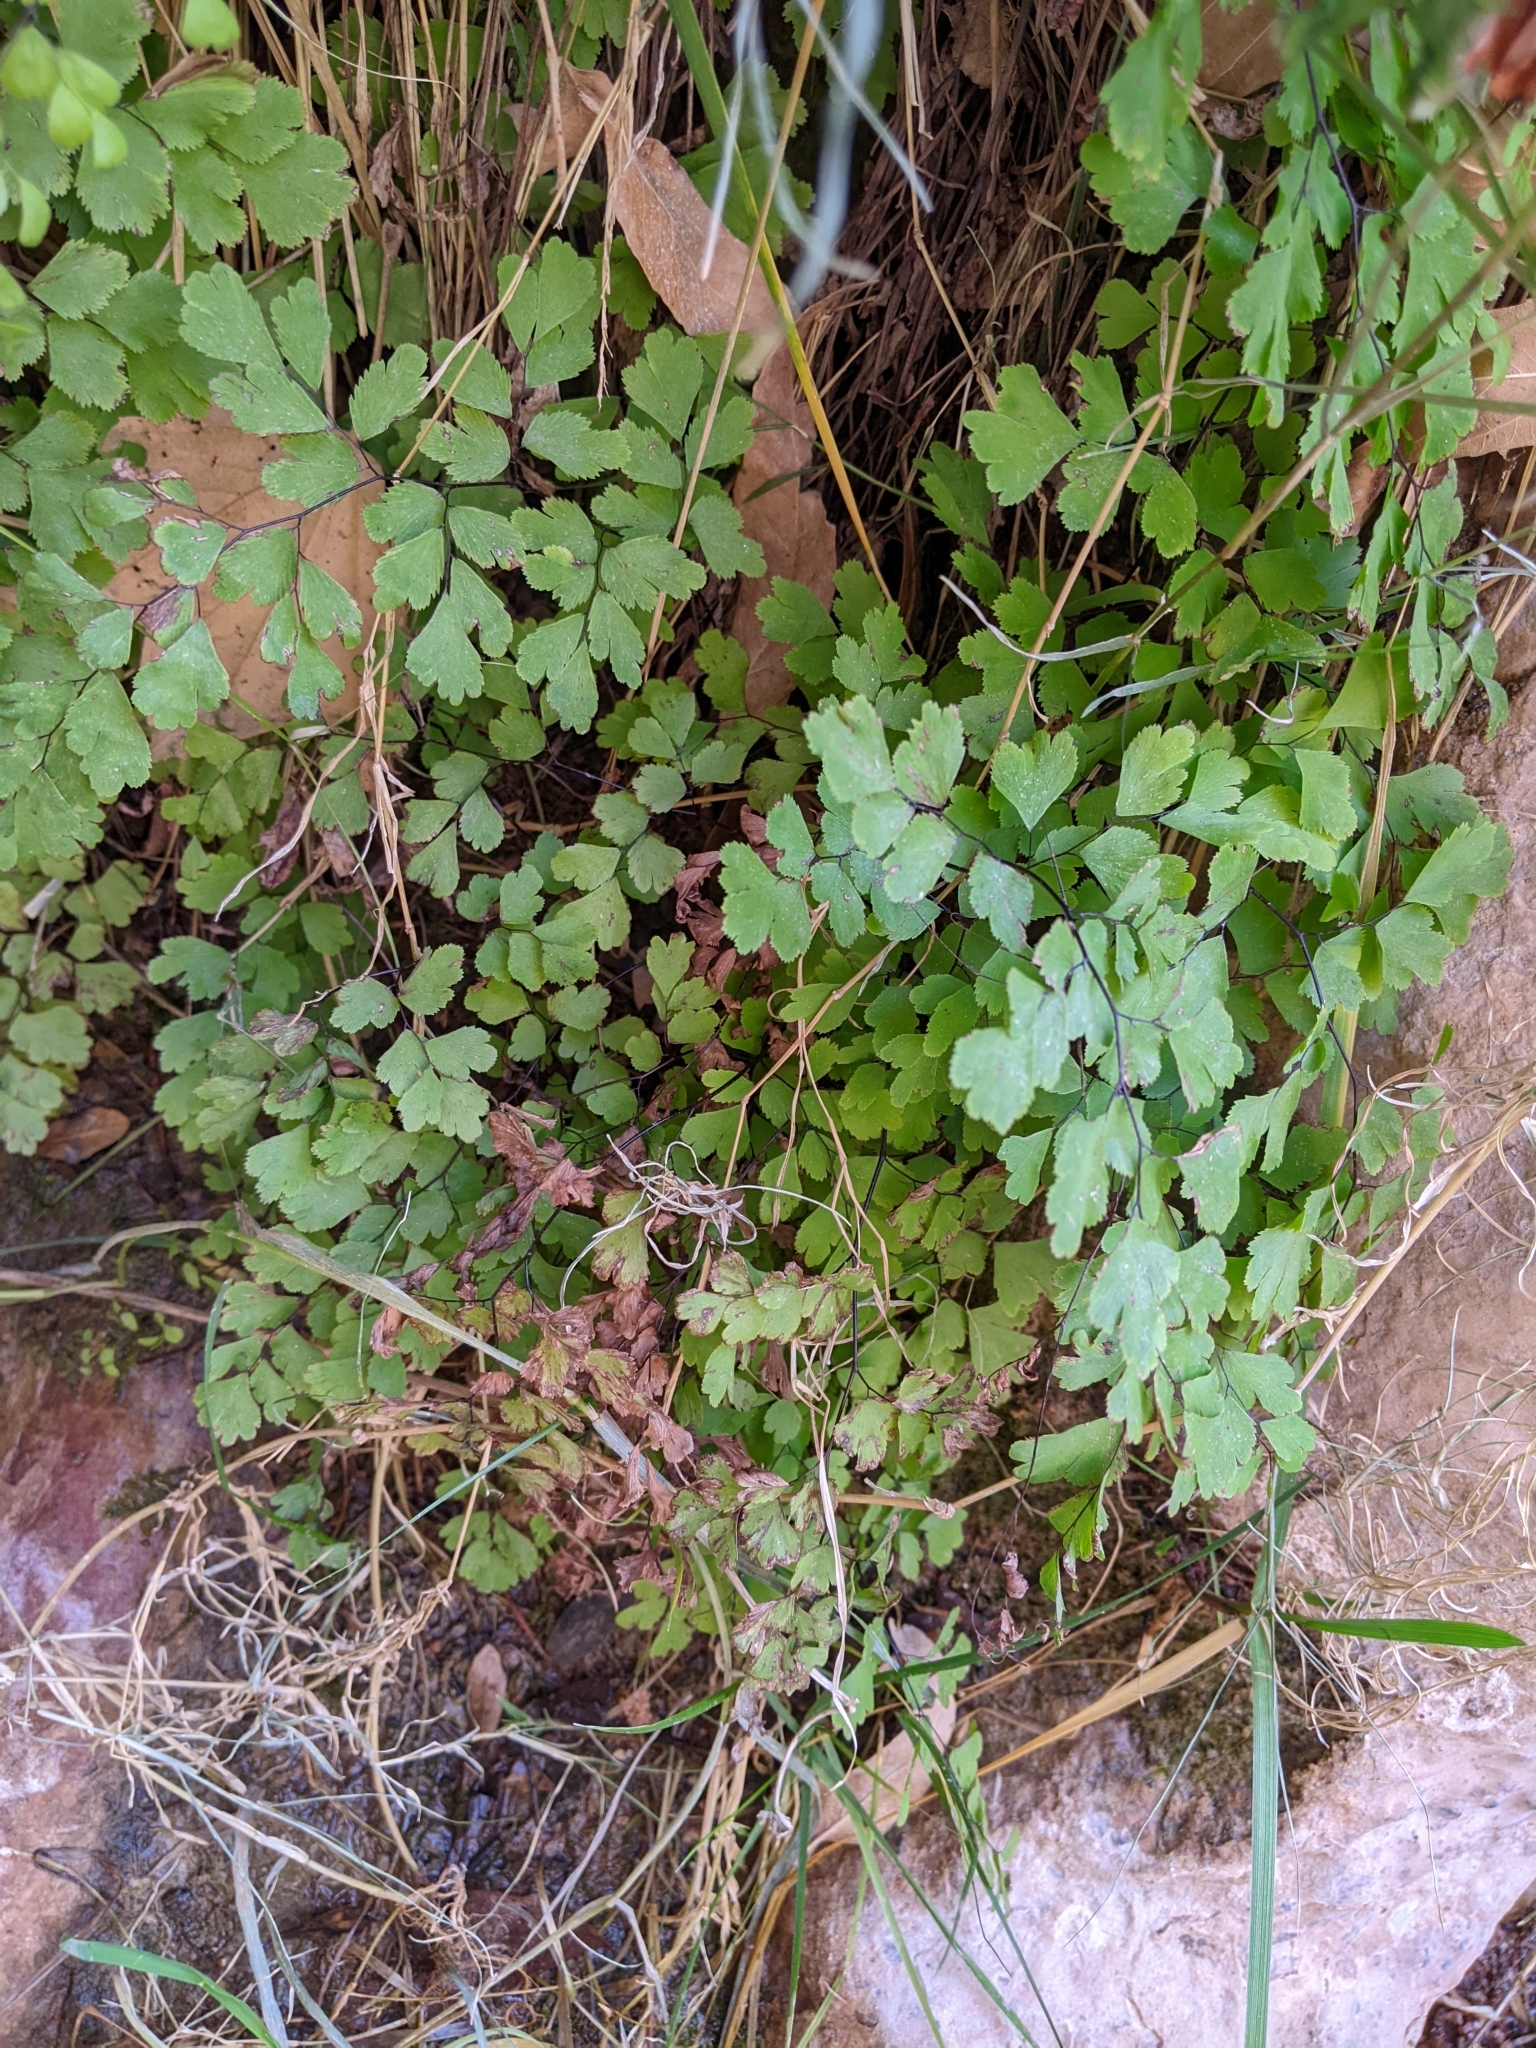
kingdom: Plantae
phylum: Tracheophyta
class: Polypodiopsida
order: Polypodiales
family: Pteridaceae
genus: Adiantum
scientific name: Adiantum capillus-veneris
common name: Maidenhair fern
